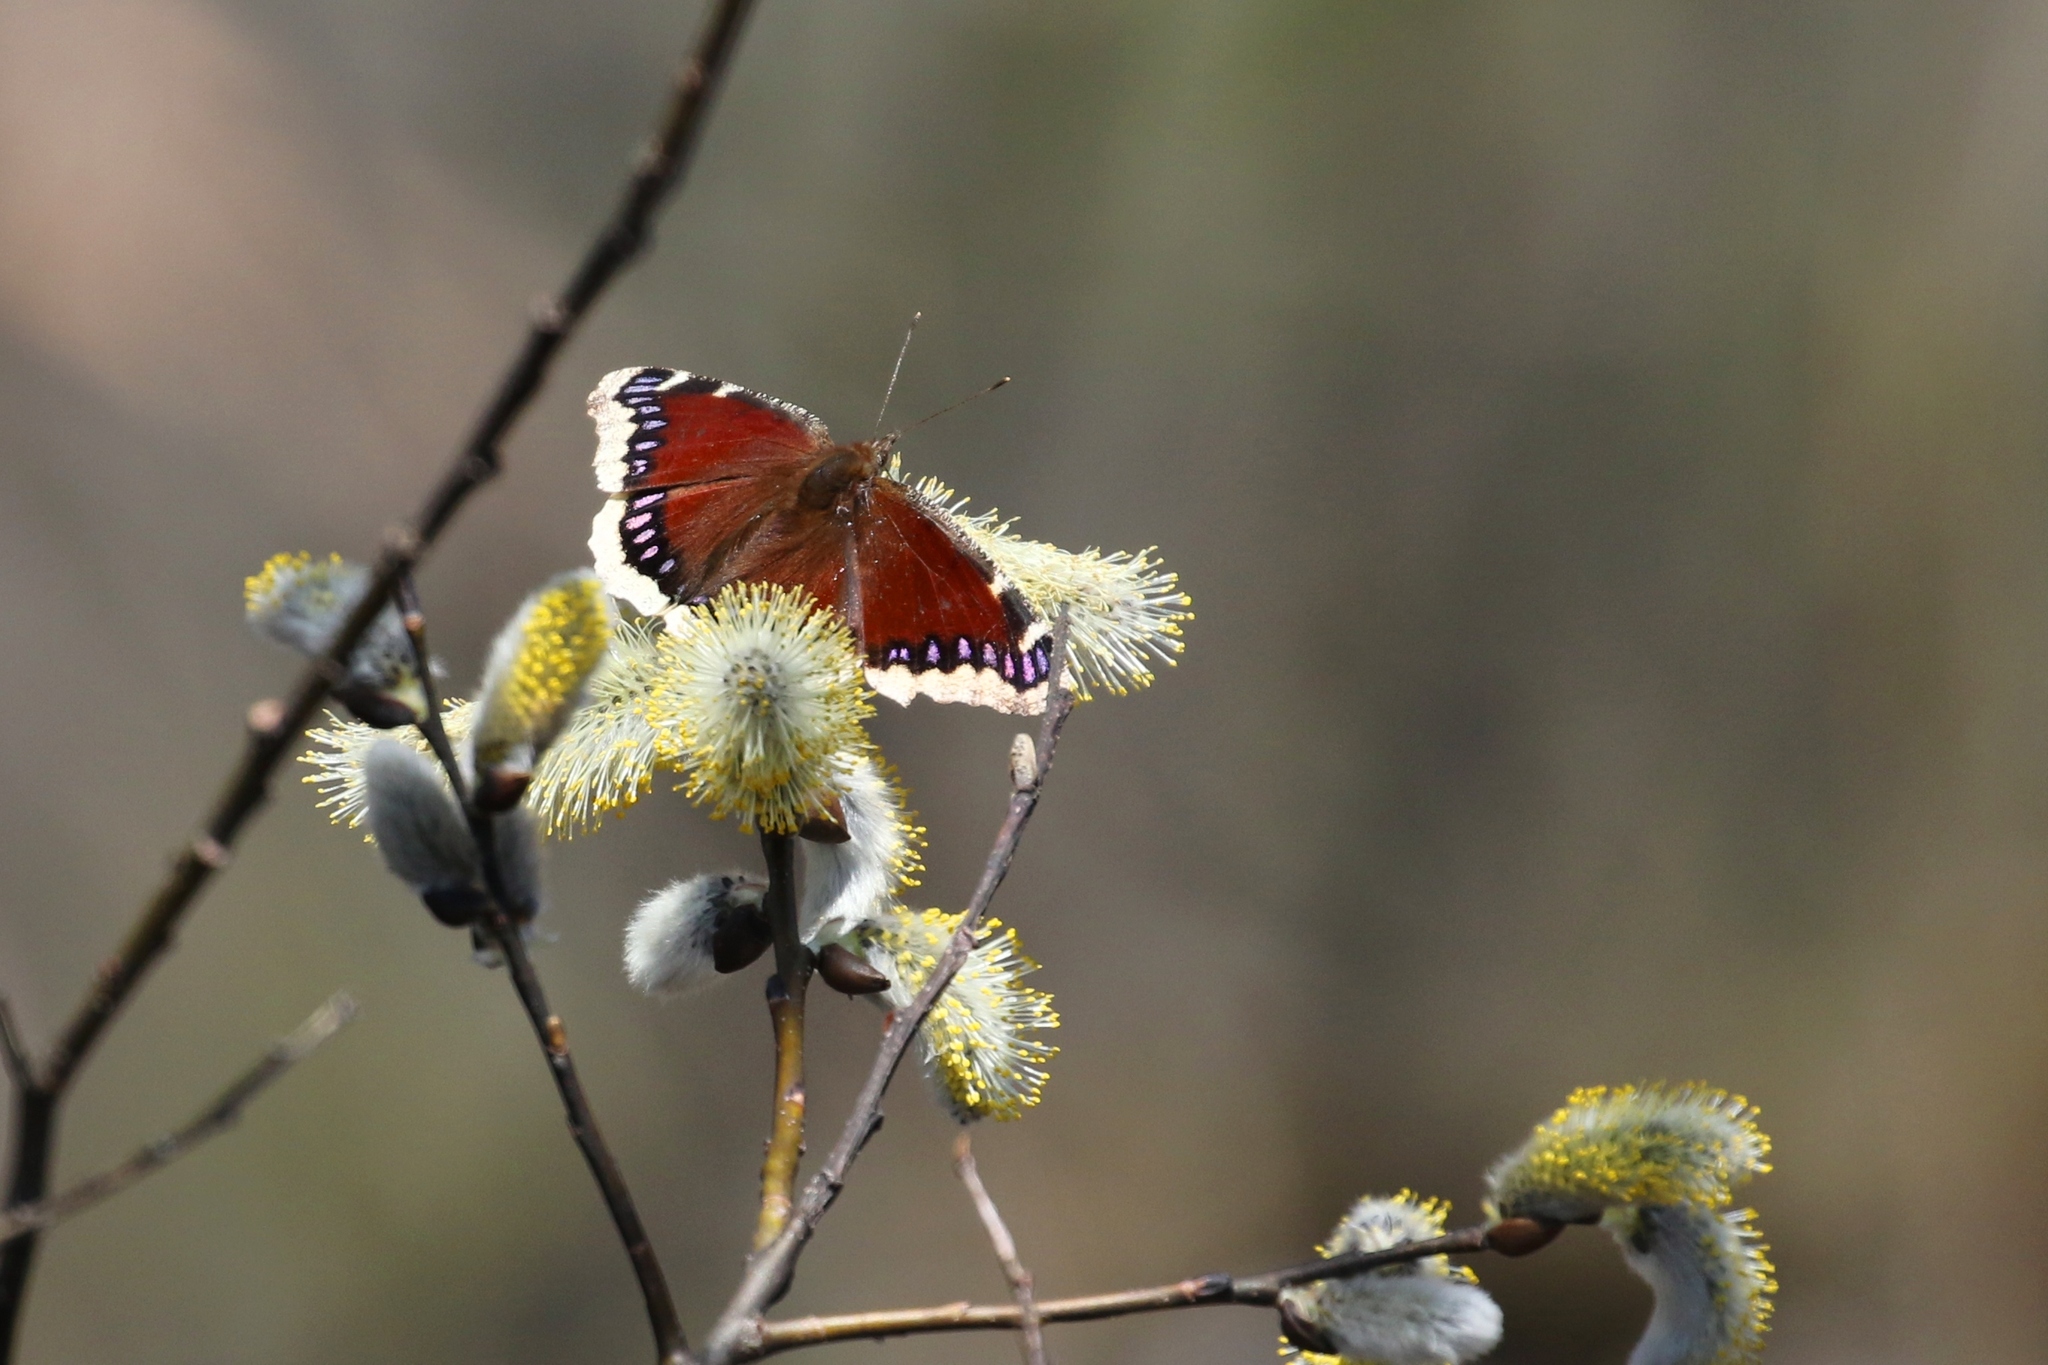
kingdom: Animalia
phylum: Arthropoda
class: Insecta
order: Lepidoptera
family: Nymphalidae
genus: Nymphalis
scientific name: Nymphalis antiopa
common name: Camberwell beauty
